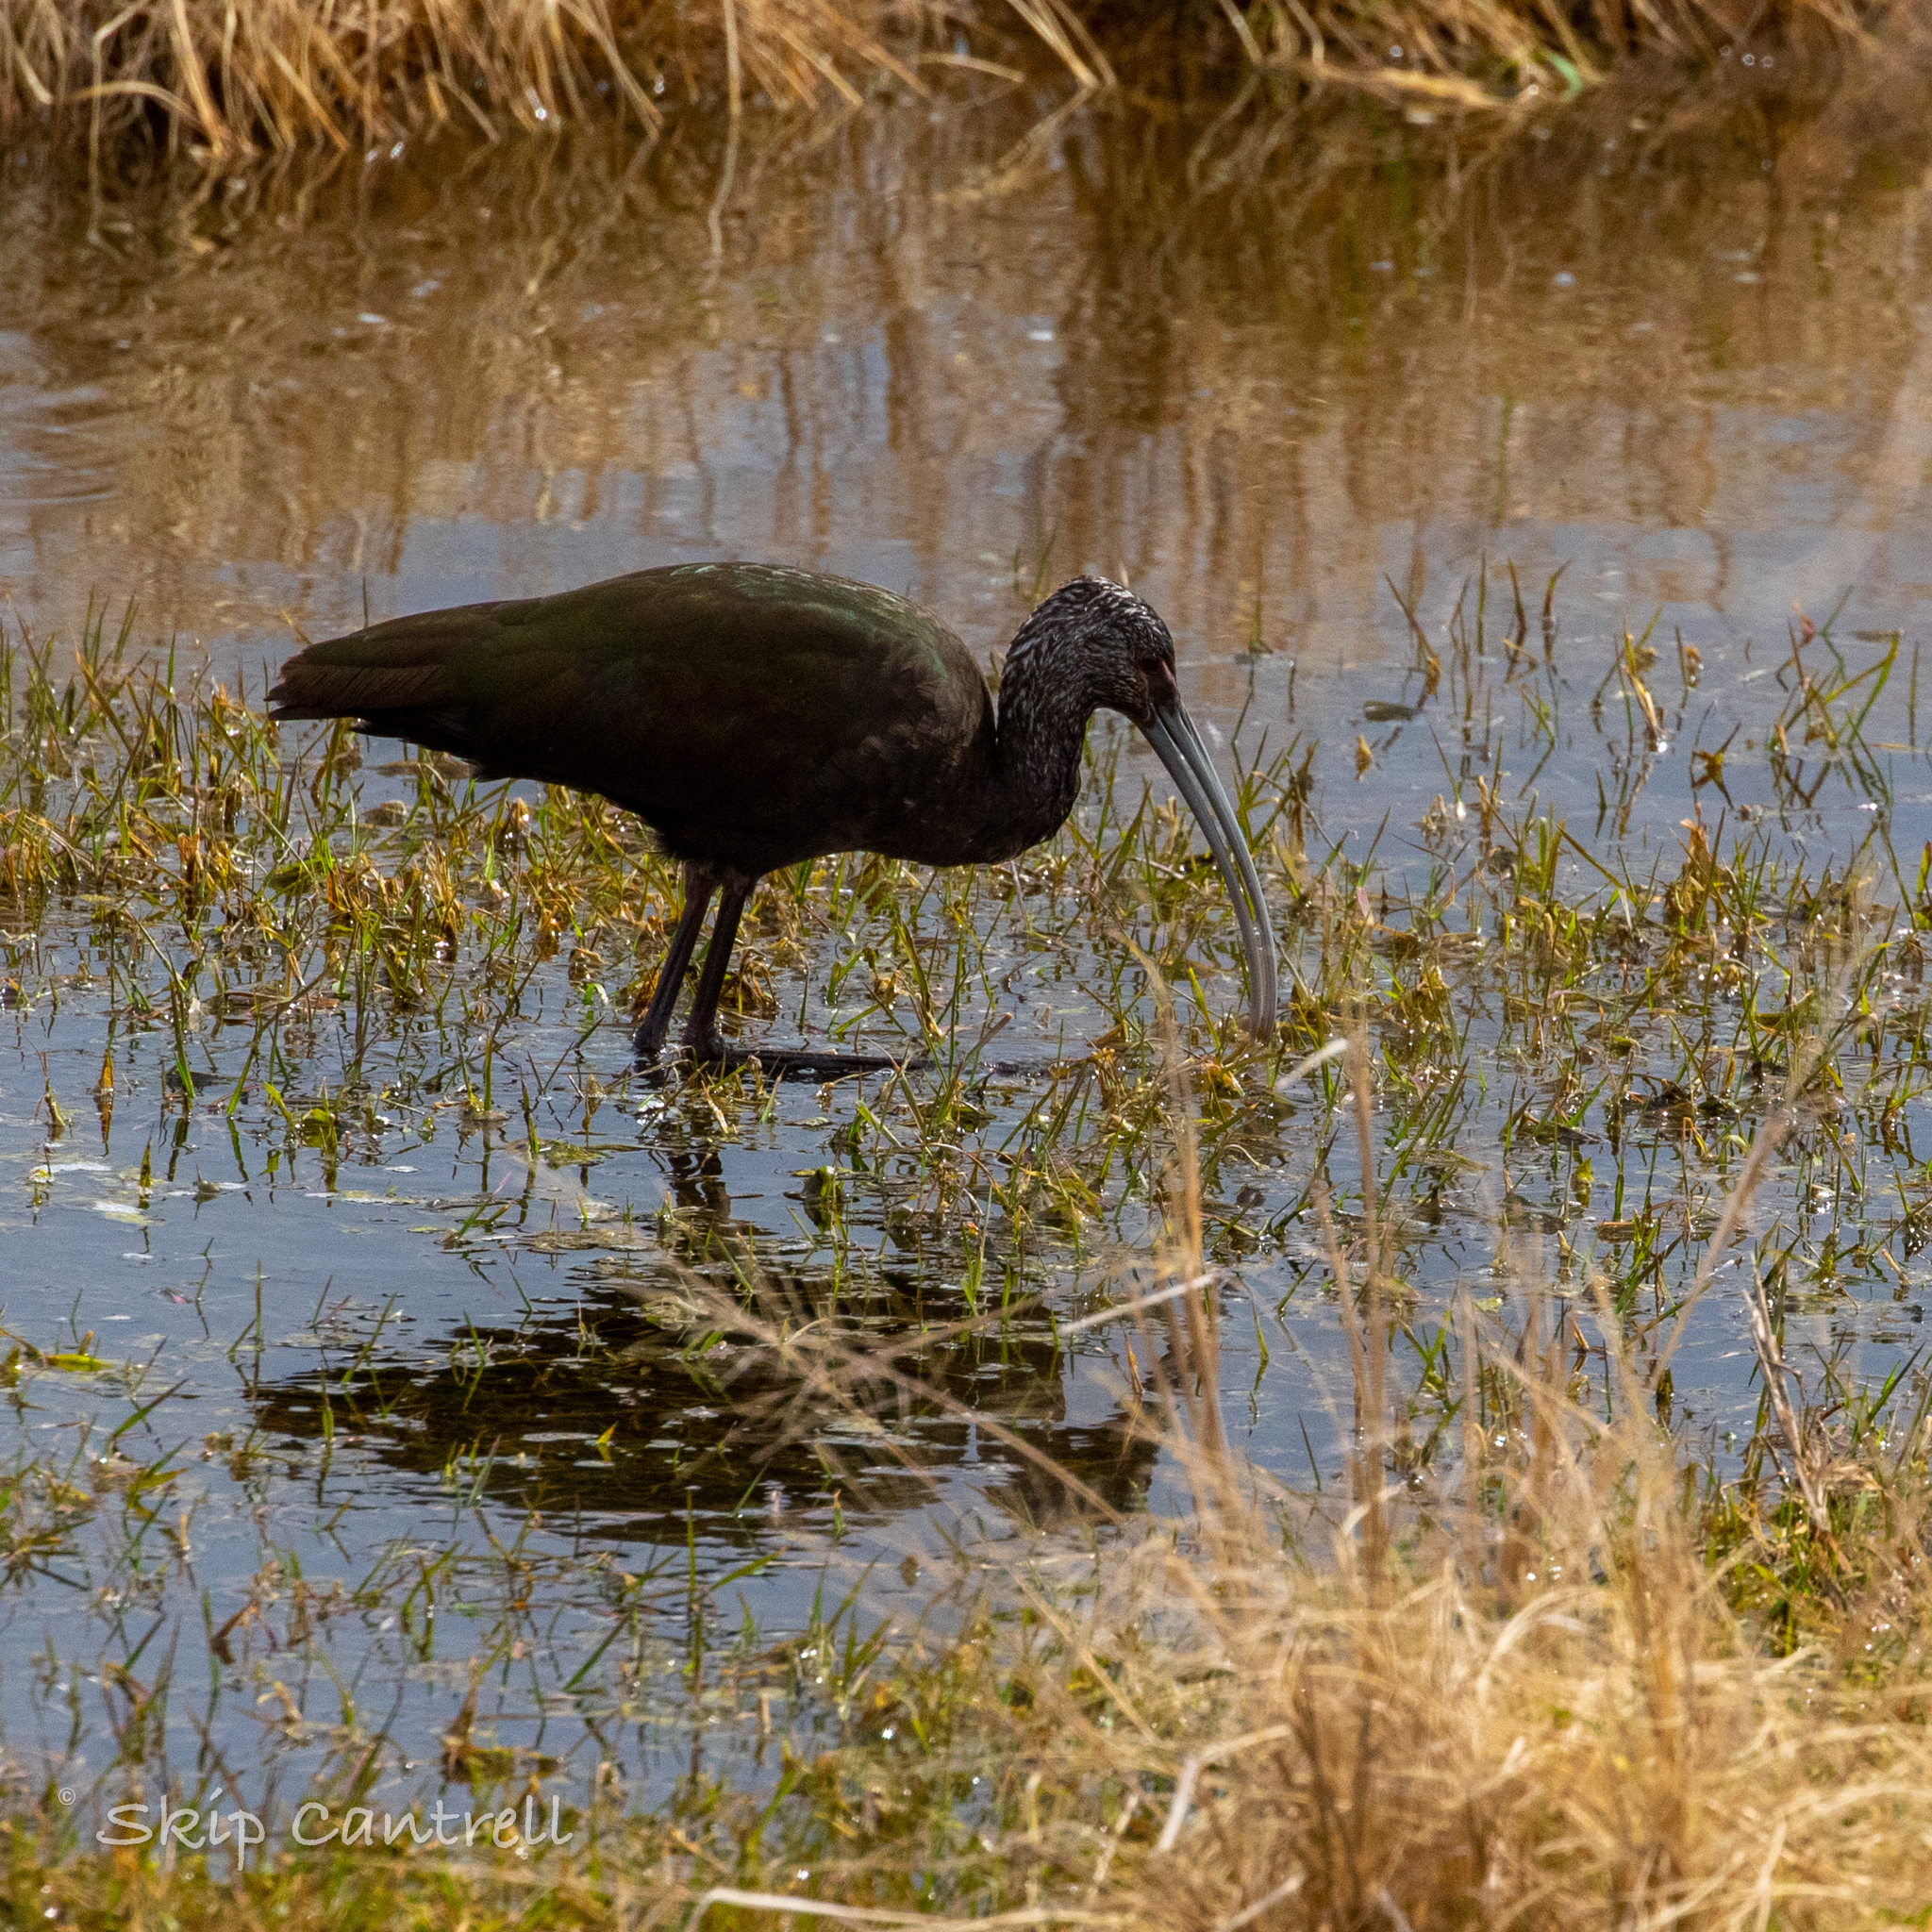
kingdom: Animalia
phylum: Chordata
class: Aves
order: Pelecaniformes
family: Threskiornithidae
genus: Plegadis
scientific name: Plegadis chihi
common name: White-faced ibis
